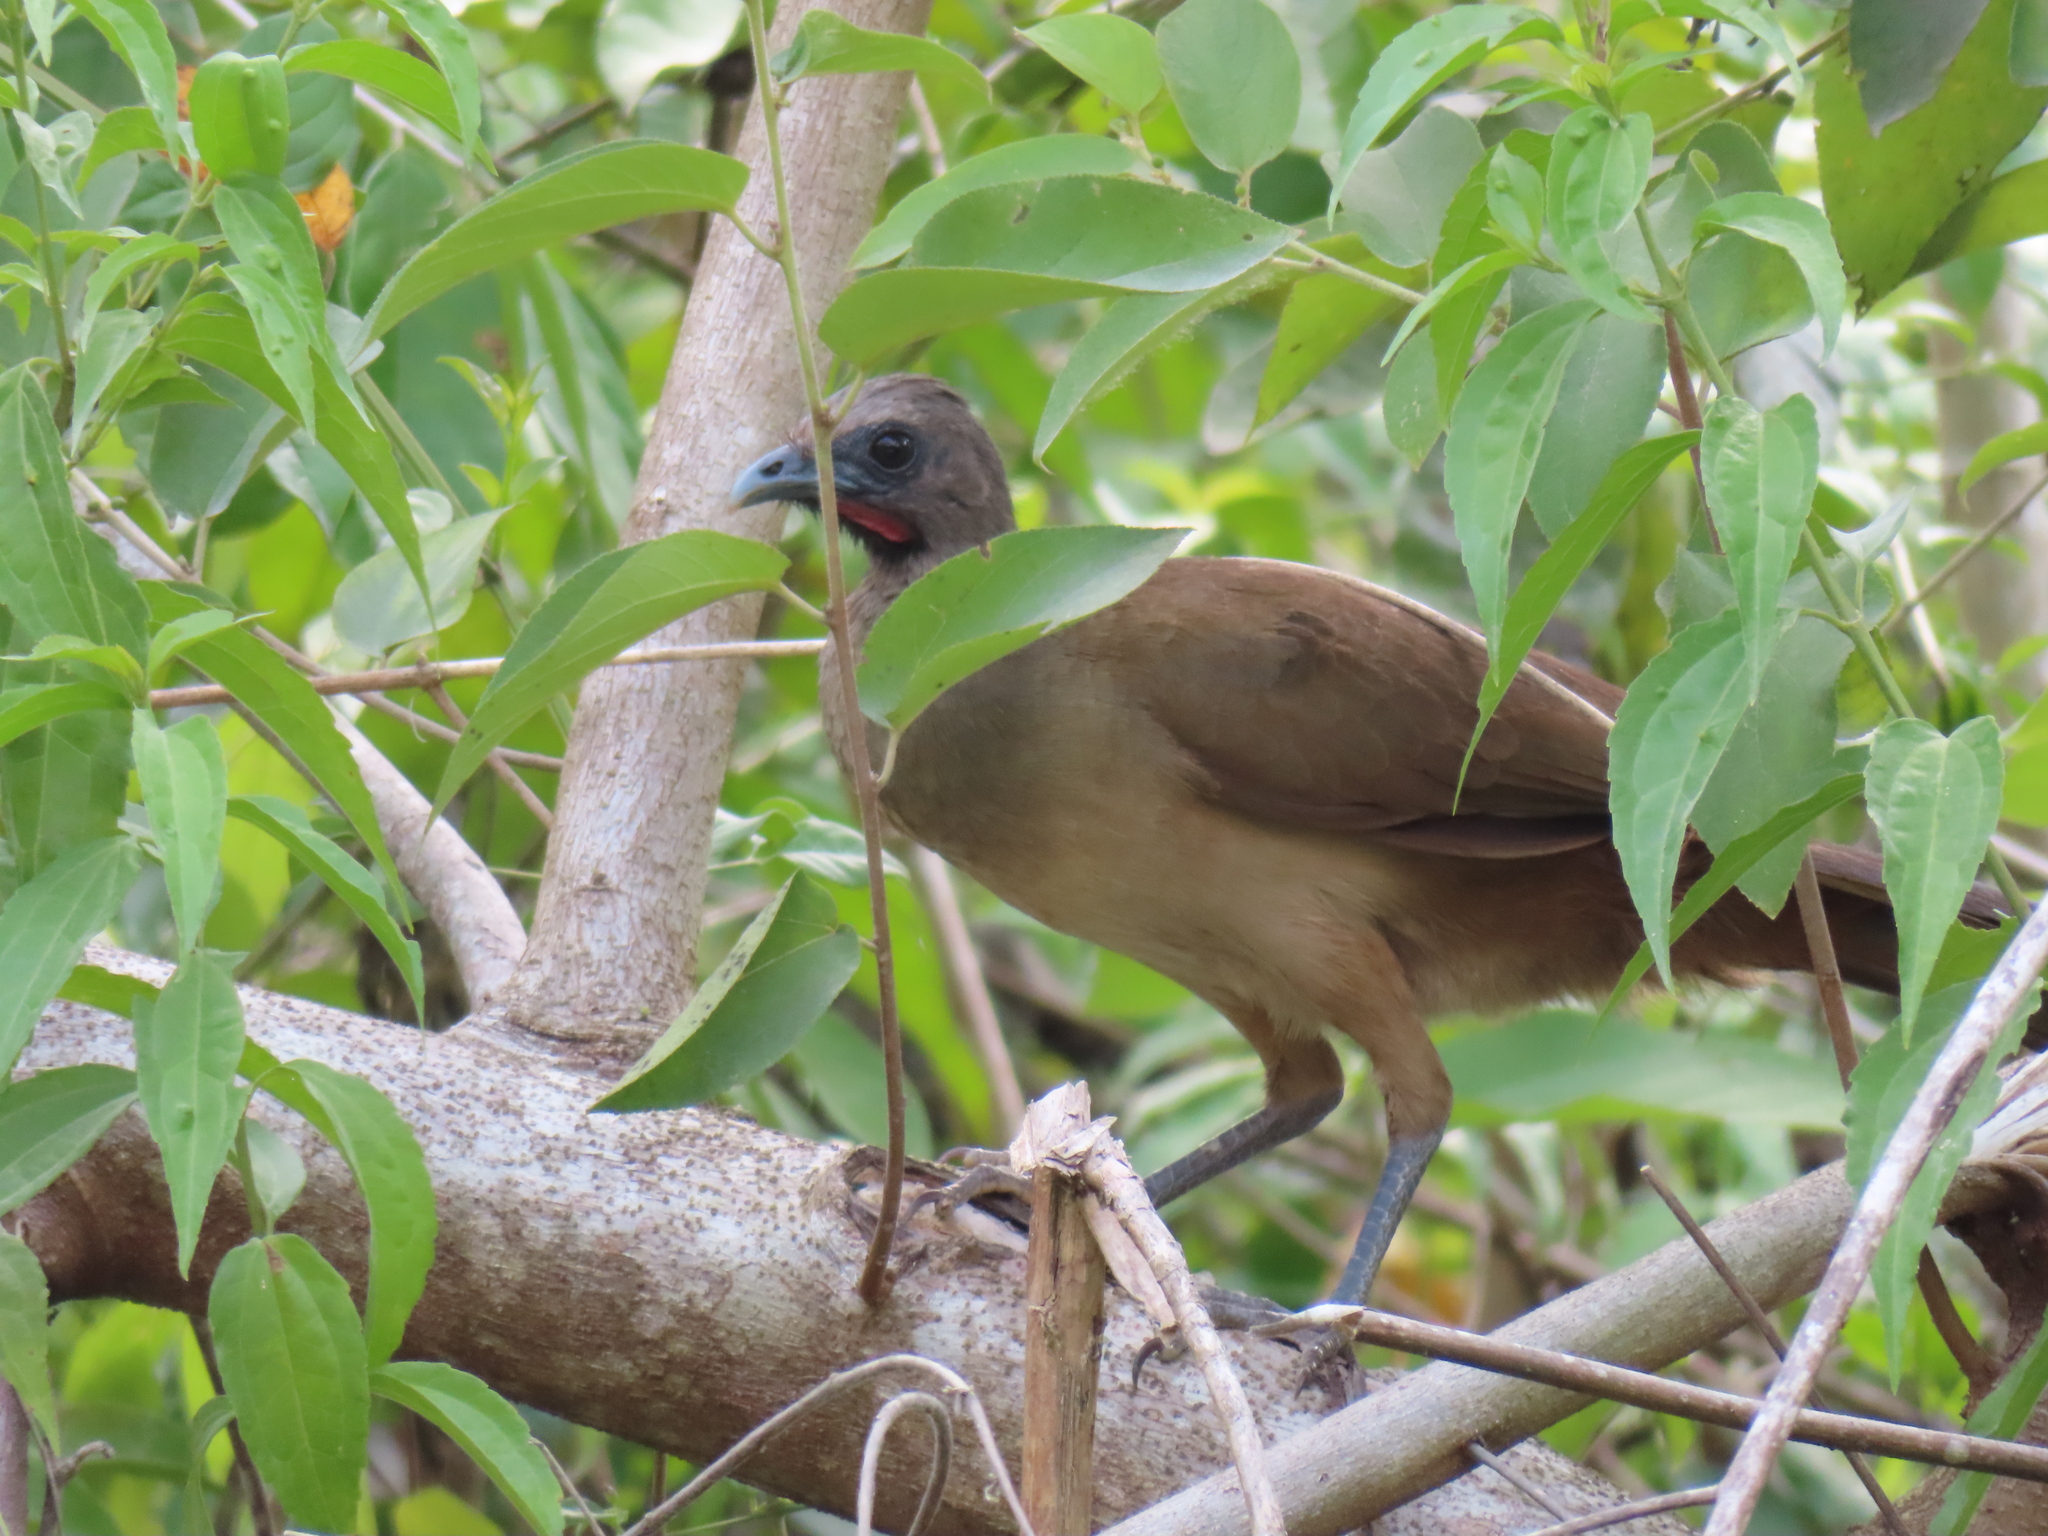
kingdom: Animalia
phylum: Chordata
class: Aves
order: Galliformes
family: Cracidae
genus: Ortalis
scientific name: Ortalis vetula
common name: Plain chachalaca
